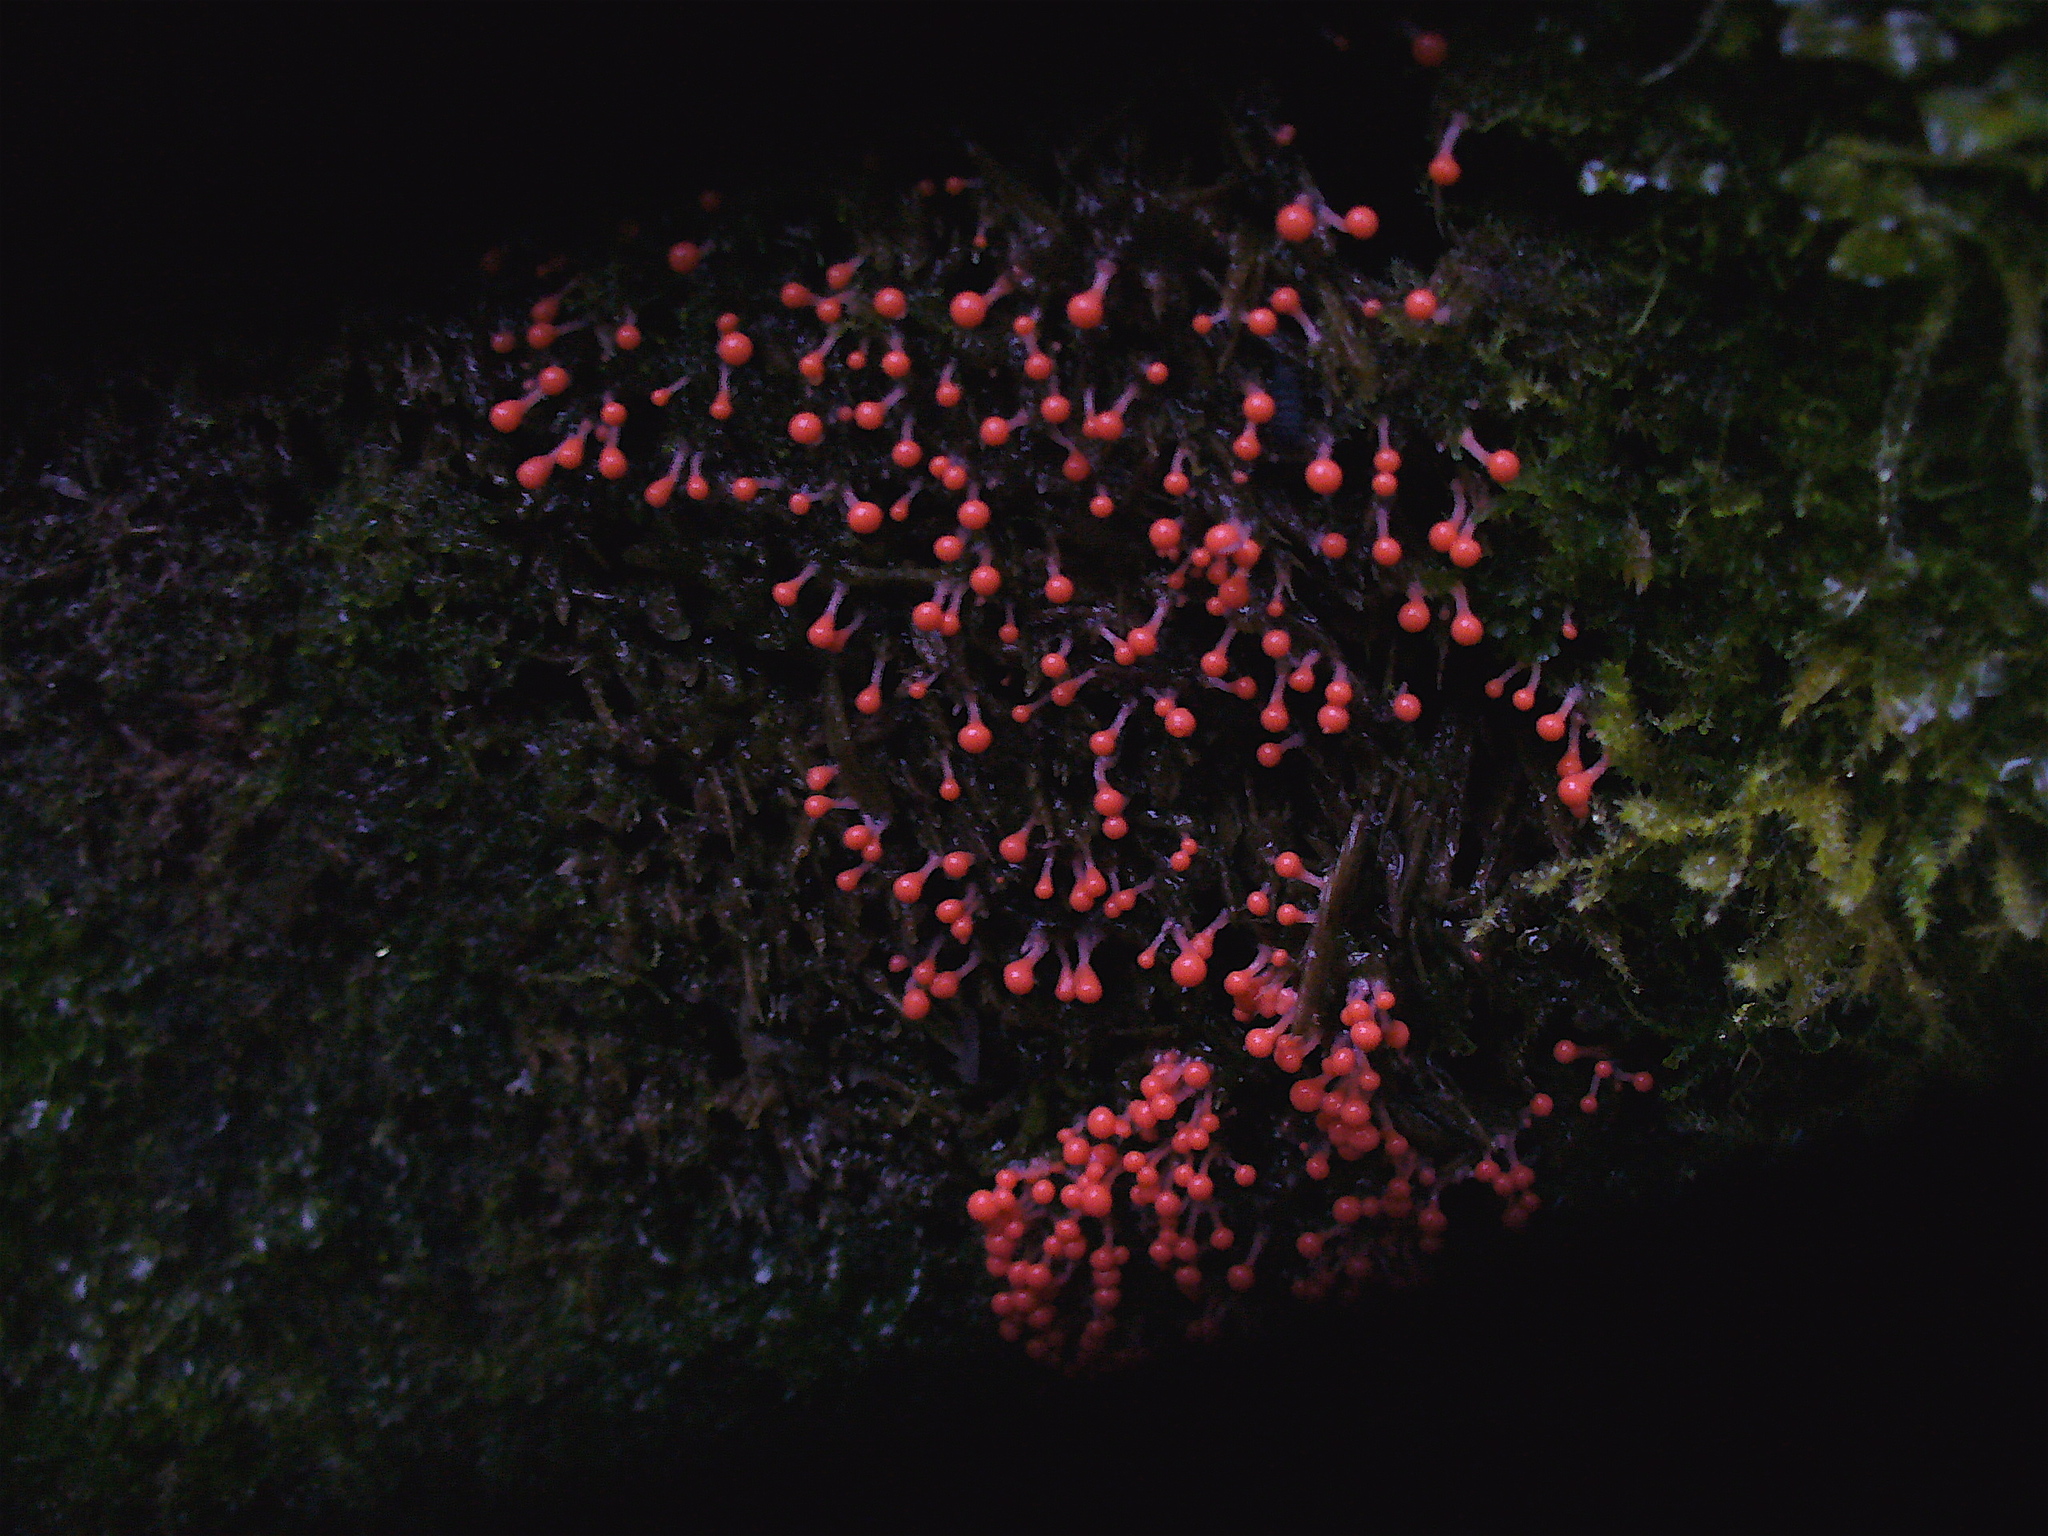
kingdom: Protozoa
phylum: Mycetozoa
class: Myxomycetes
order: Trichiales
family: Arcyriaceae
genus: Hemitrichia
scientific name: Hemitrichia decipiens
